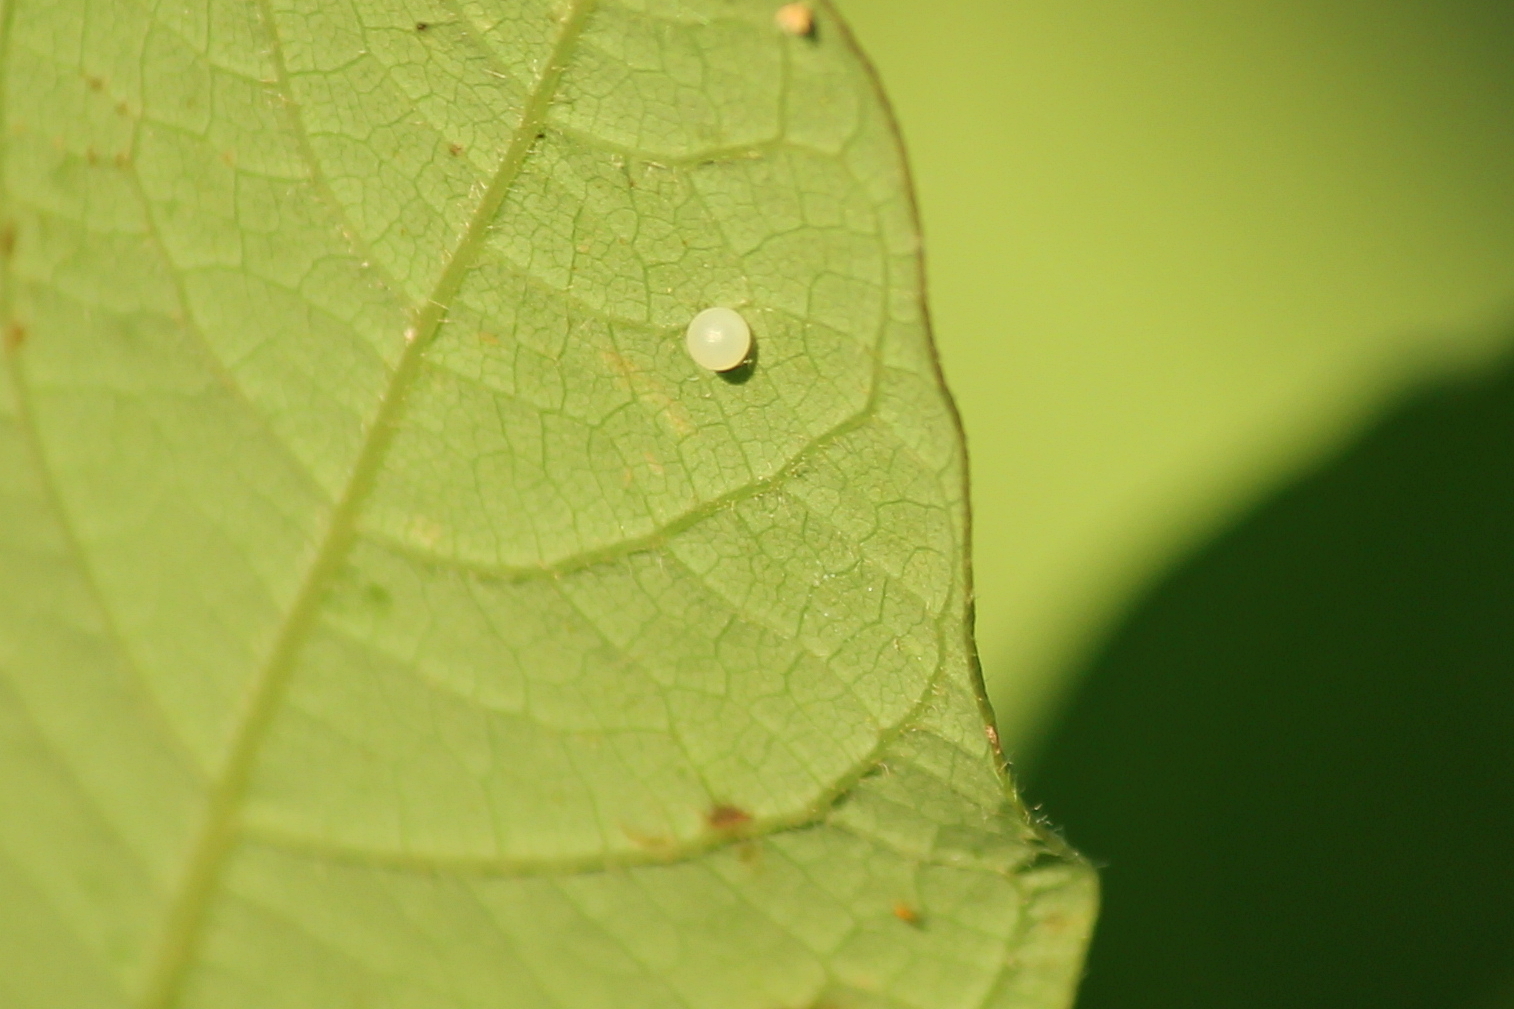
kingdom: Animalia
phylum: Arthropoda
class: Insecta
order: Lepidoptera
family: Papilionidae
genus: Papilio
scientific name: Papilio troilus
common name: Spicebush swallowtail
